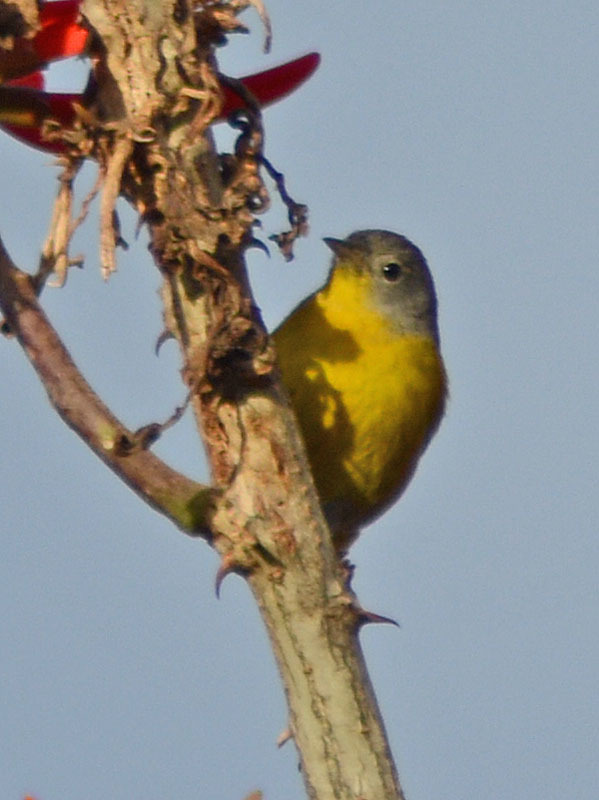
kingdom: Animalia
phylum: Chordata
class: Aves
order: Passeriformes
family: Parulidae
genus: Leiothlypis
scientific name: Leiothlypis ruficapilla
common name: Nashville warbler
